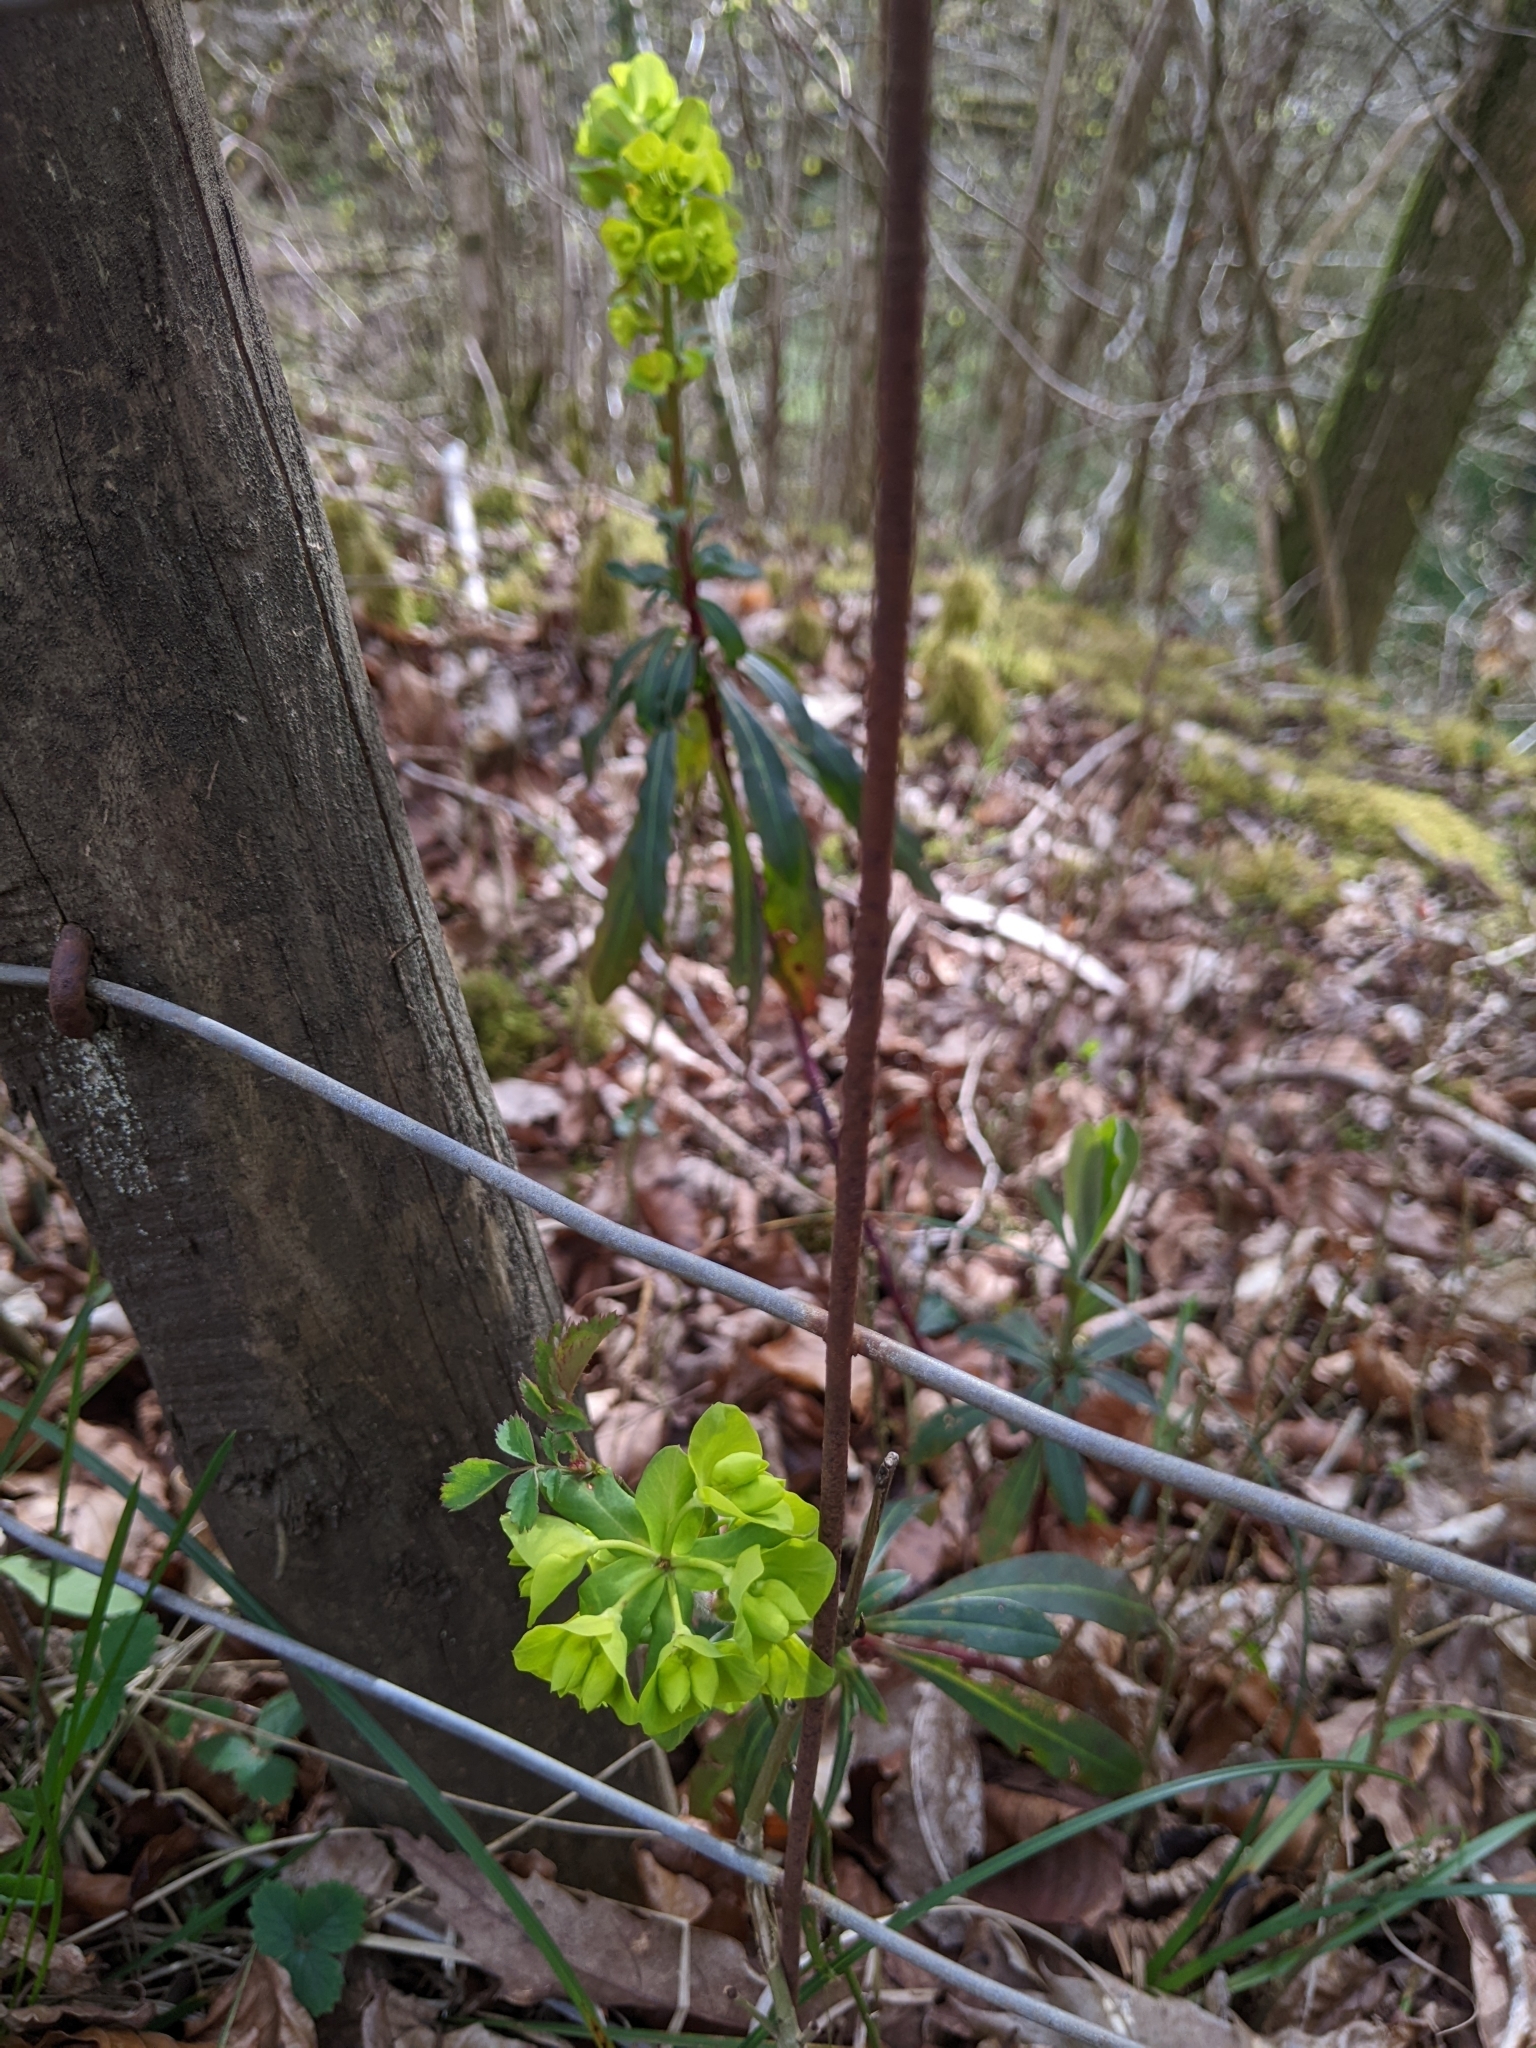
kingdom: Plantae
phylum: Tracheophyta
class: Magnoliopsida
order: Malpighiales
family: Euphorbiaceae
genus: Euphorbia
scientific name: Euphorbia amygdaloides
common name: Wood spurge
